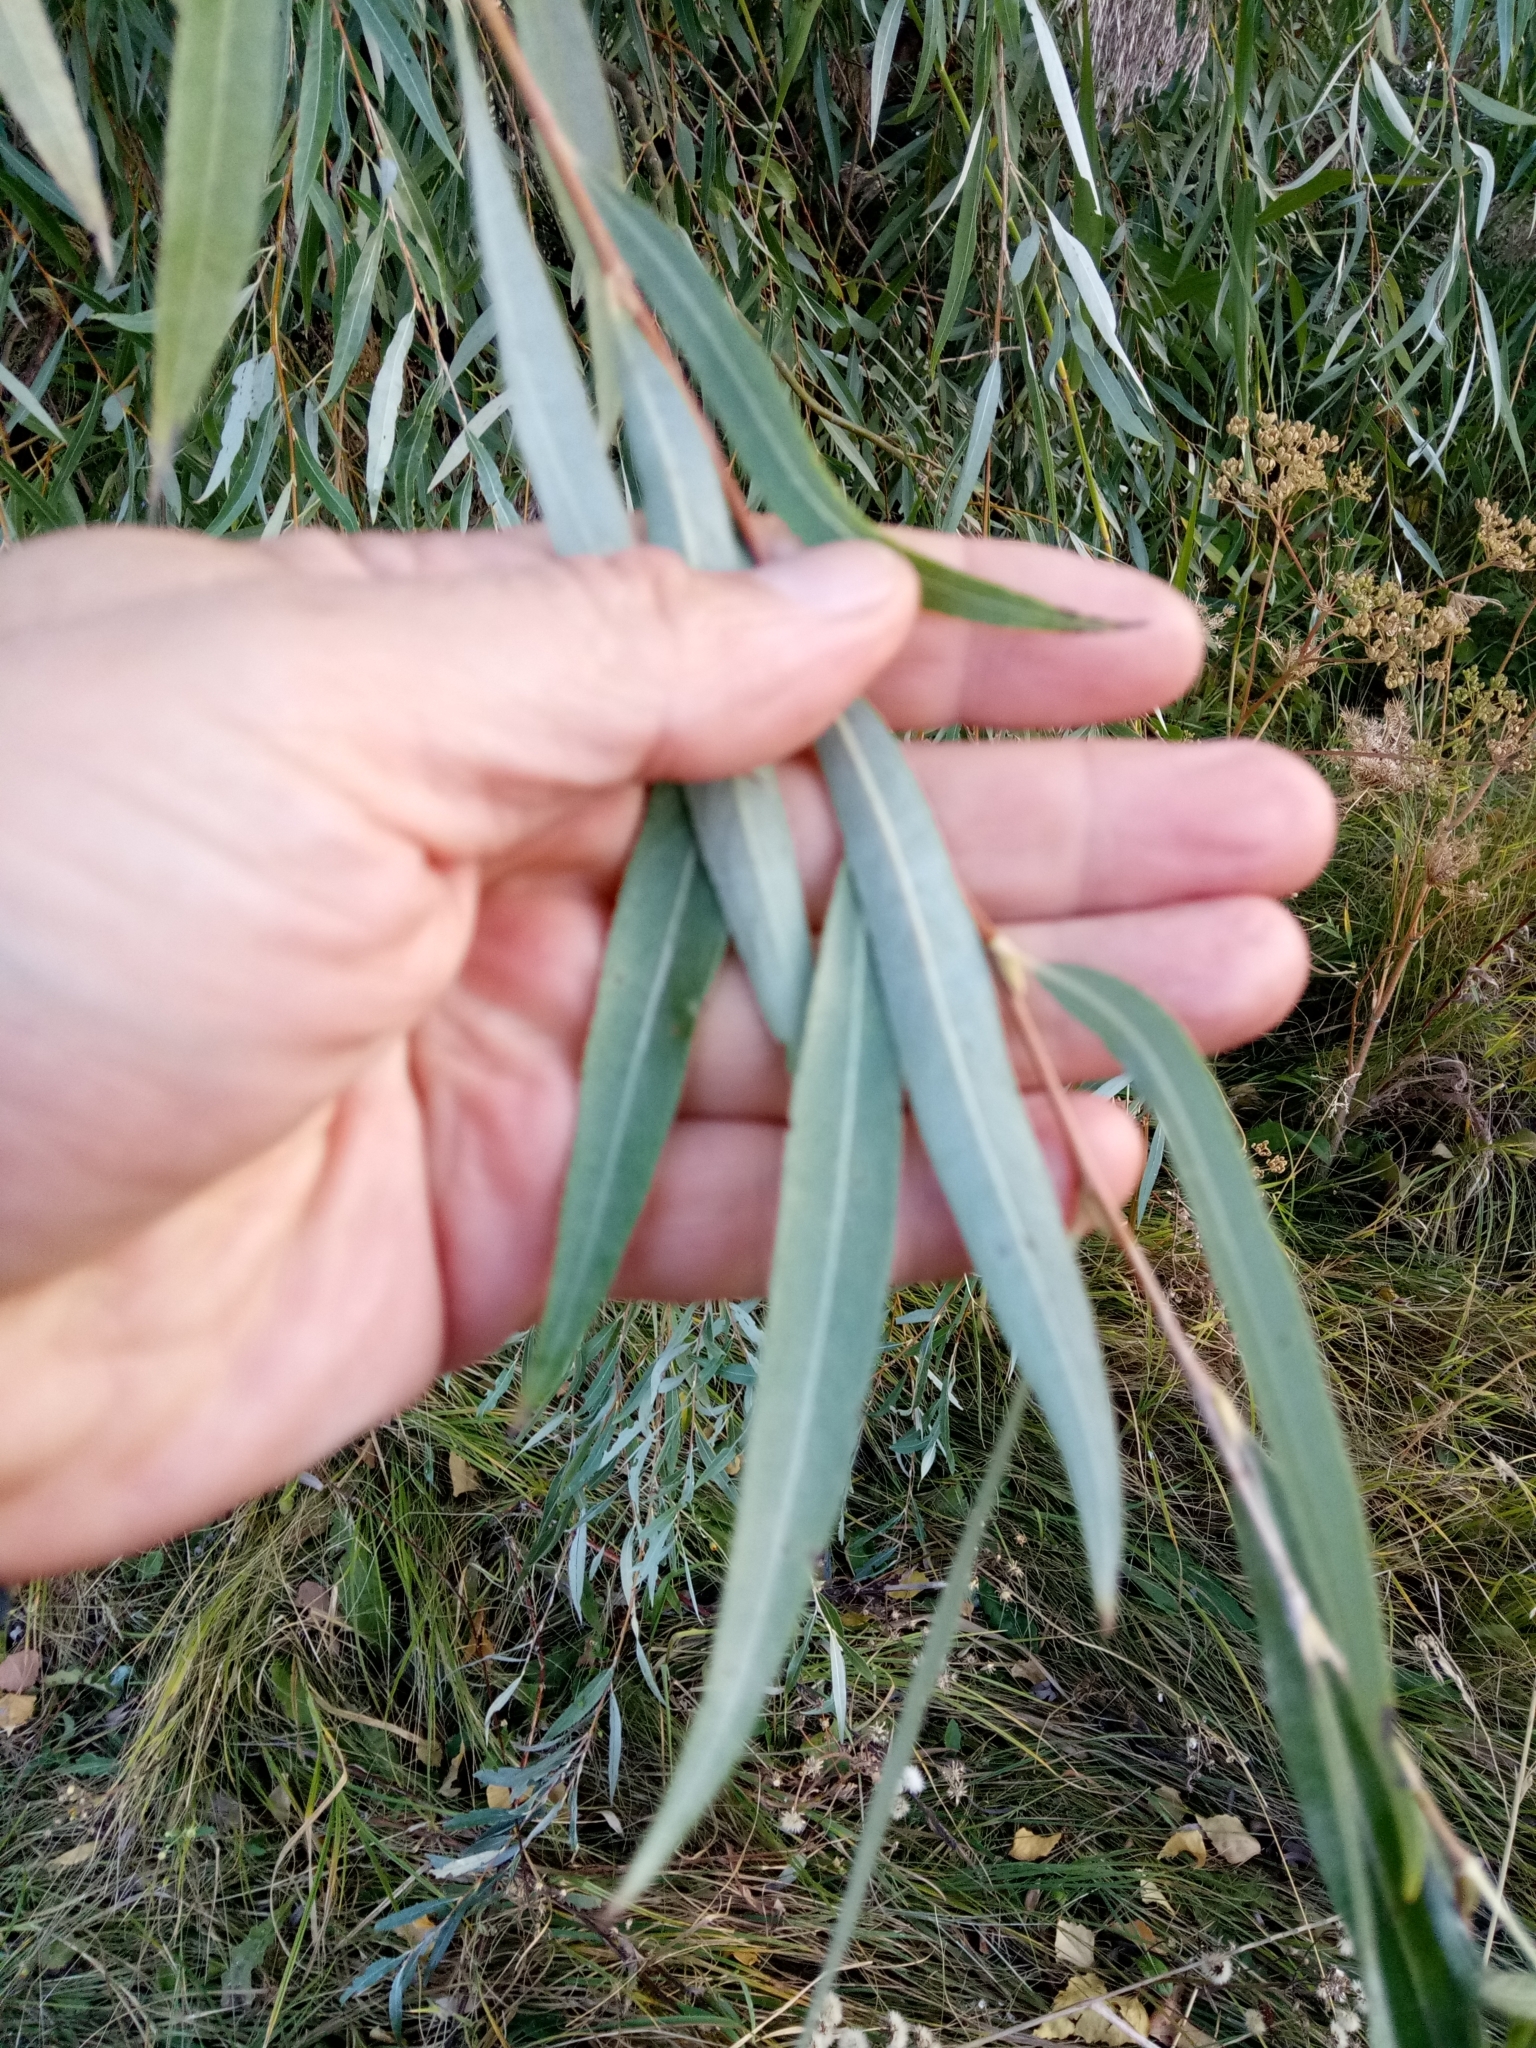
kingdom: Plantae
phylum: Tracheophyta
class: Magnoliopsida
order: Malpighiales
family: Salicaceae
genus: Salix
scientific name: Salix alba
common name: White willow
